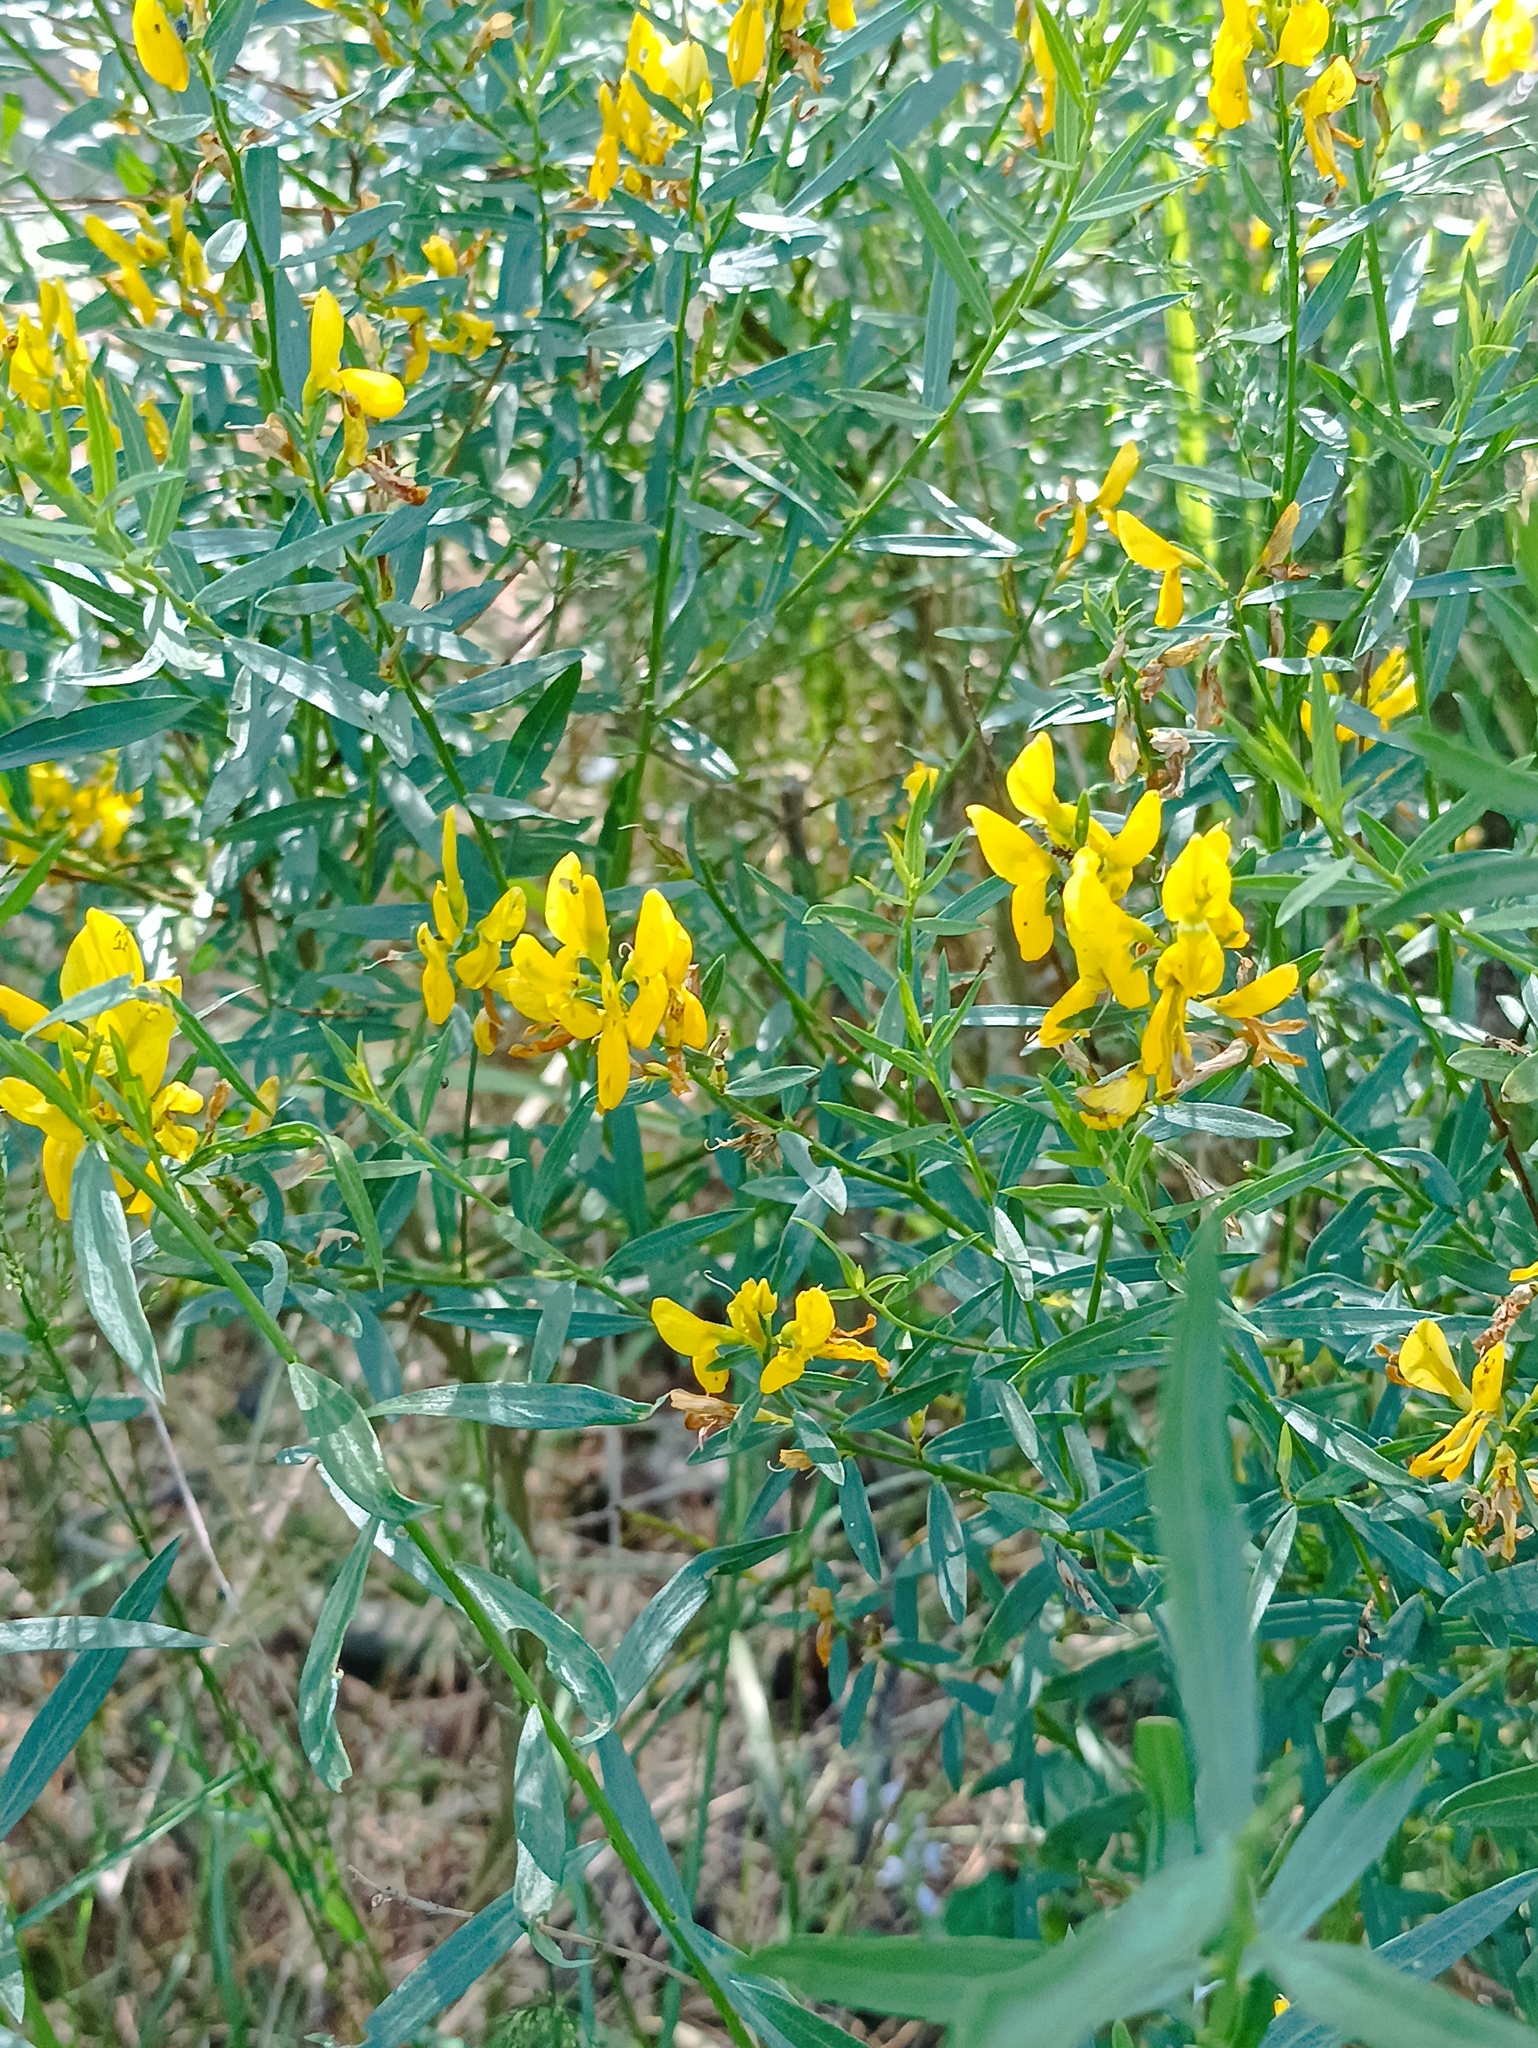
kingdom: Plantae
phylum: Tracheophyta
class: Magnoliopsida
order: Fabales
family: Fabaceae
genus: Genista
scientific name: Genista tinctoria
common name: Dyer's greenweed
